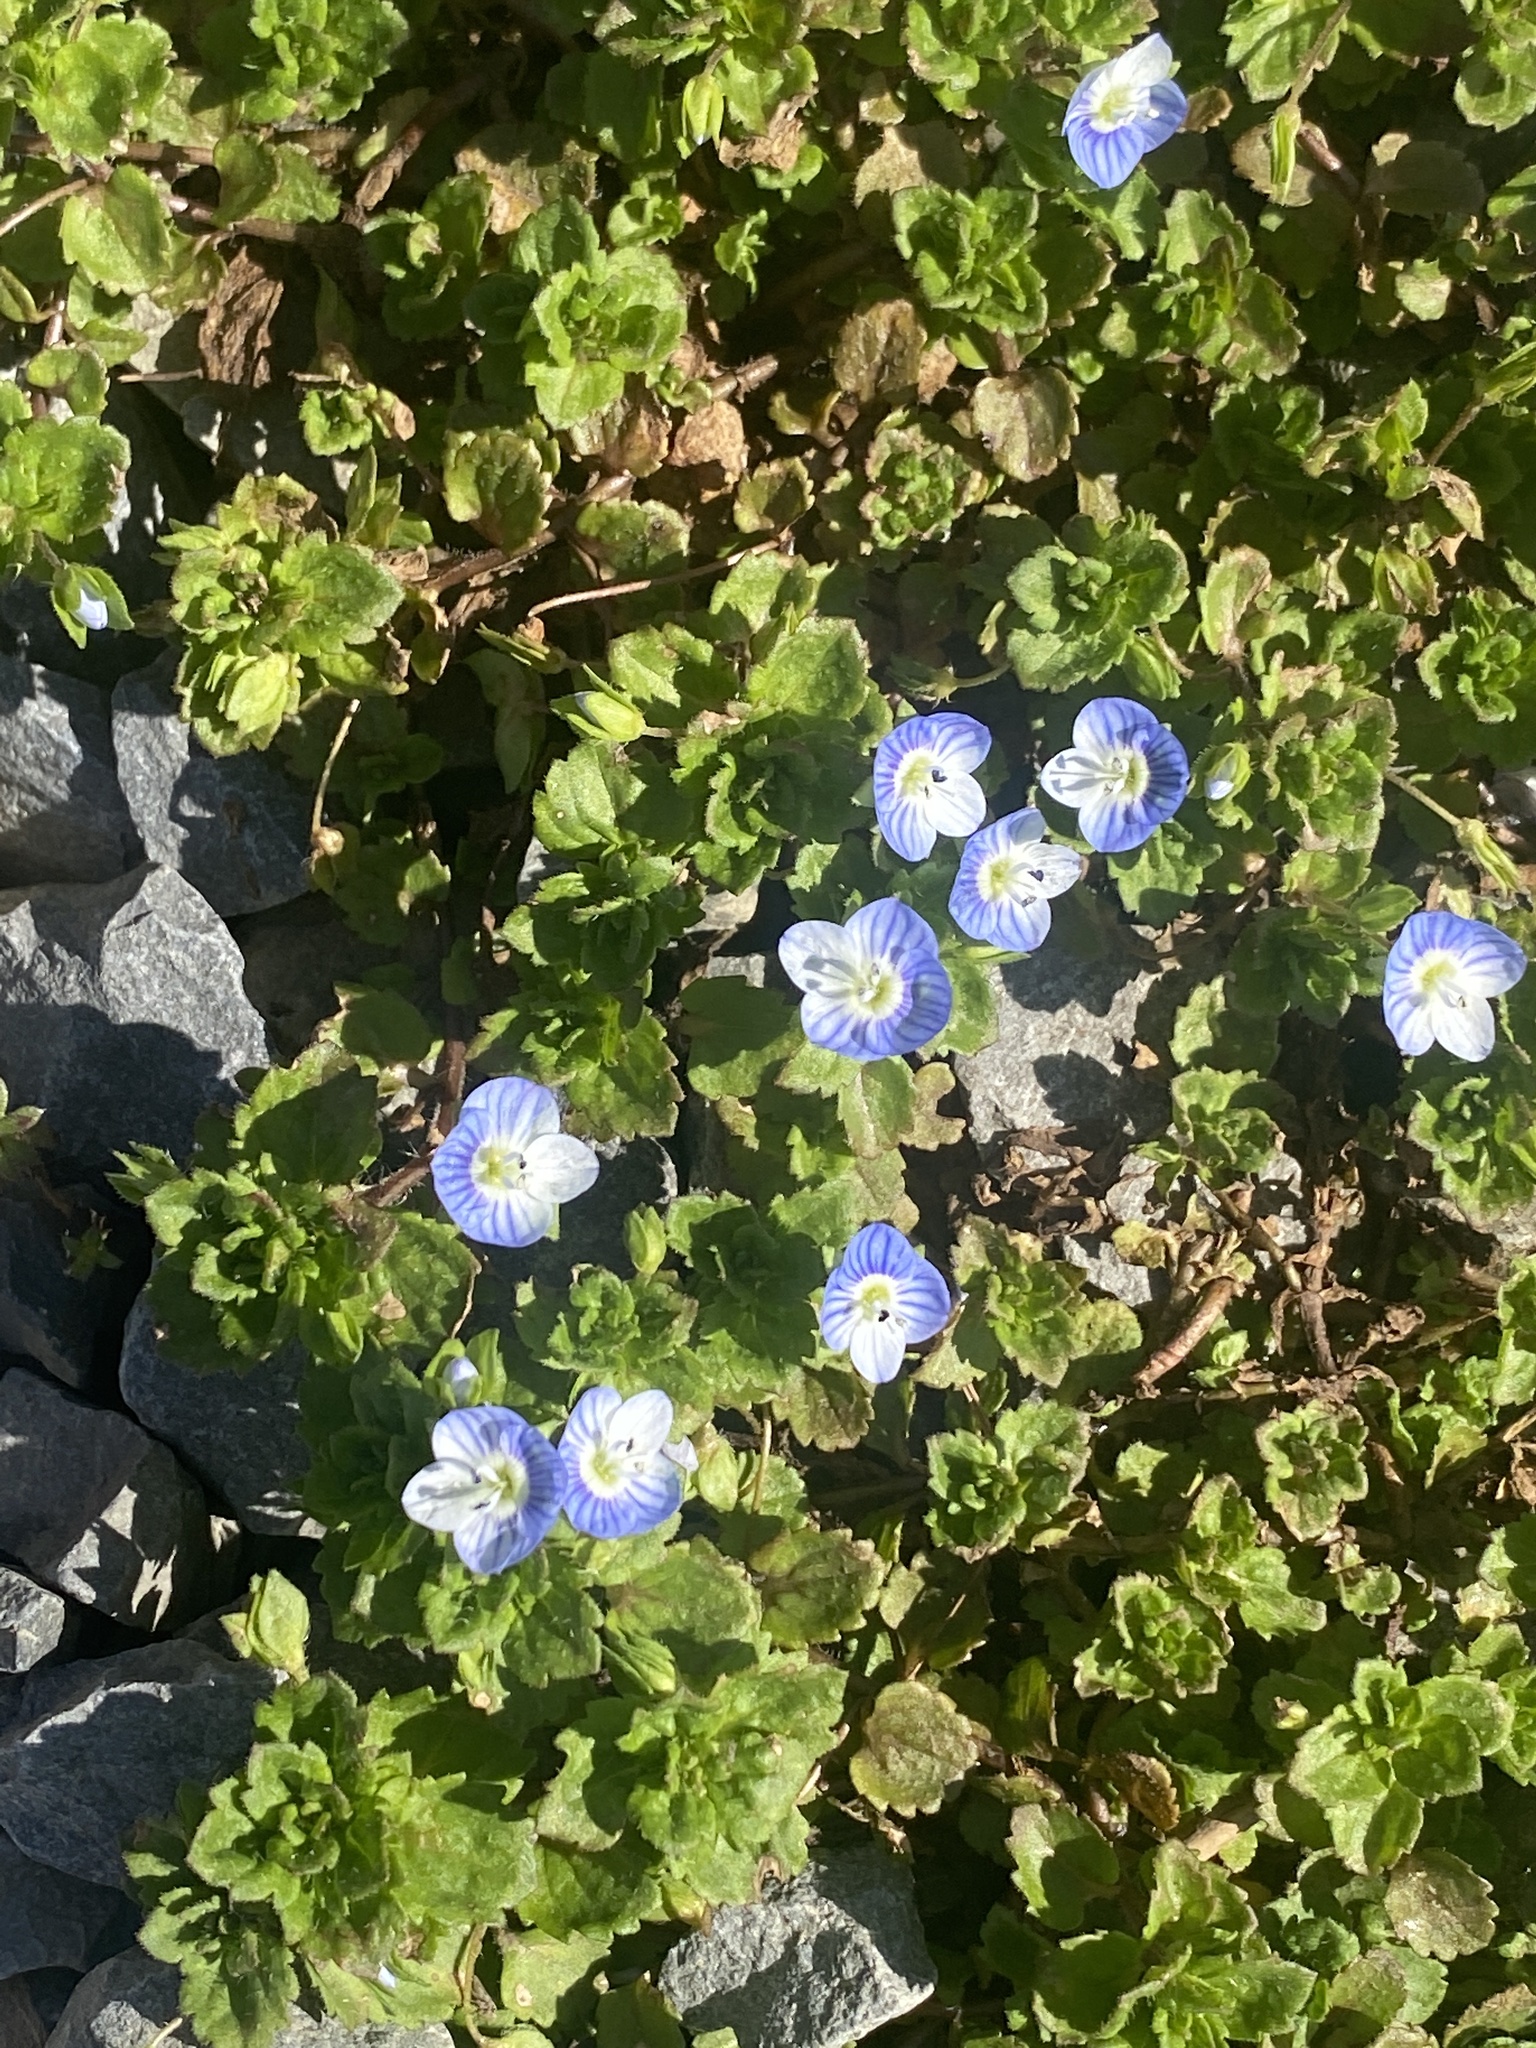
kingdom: Plantae
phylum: Tracheophyta
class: Magnoliopsida
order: Lamiales
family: Plantaginaceae
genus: Veronica
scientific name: Veronica persica
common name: Common field-speedwell
